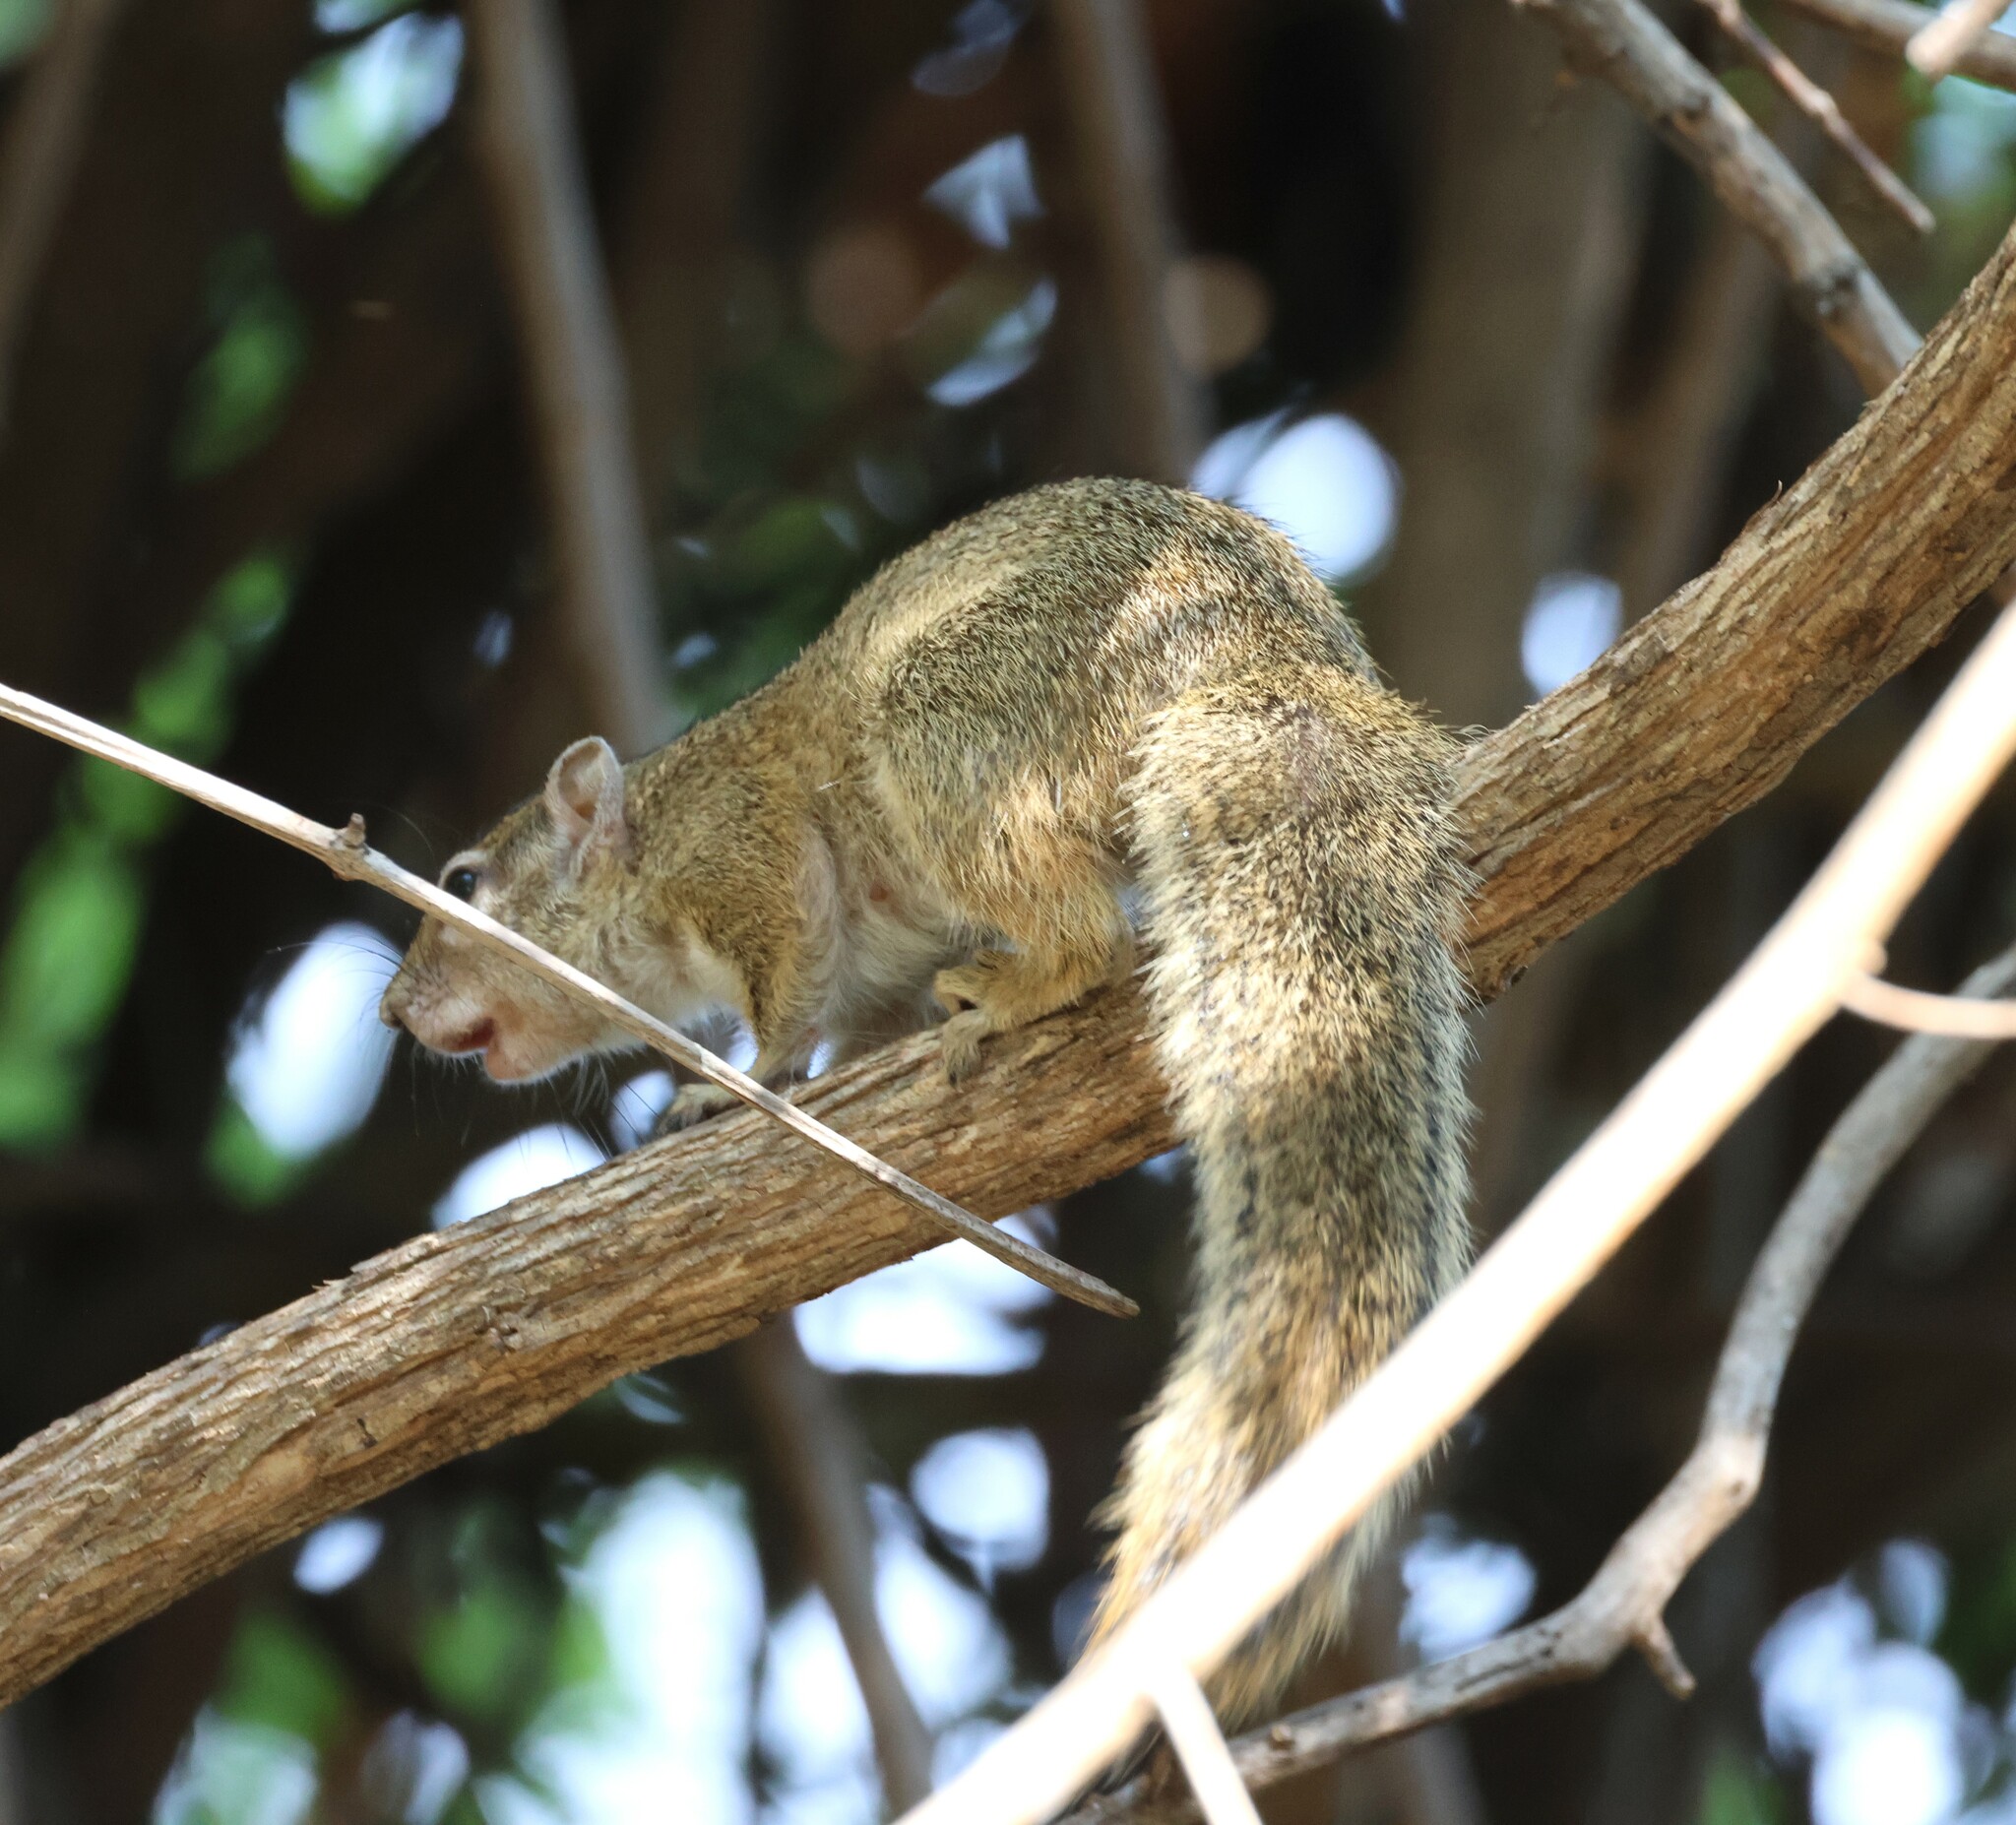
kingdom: Animalia
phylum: Chordata
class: Mammalia
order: Rodentia
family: Sciuridae
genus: Paraxerus
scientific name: Paraxerus cepapi
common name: Smith's bush squirrel
